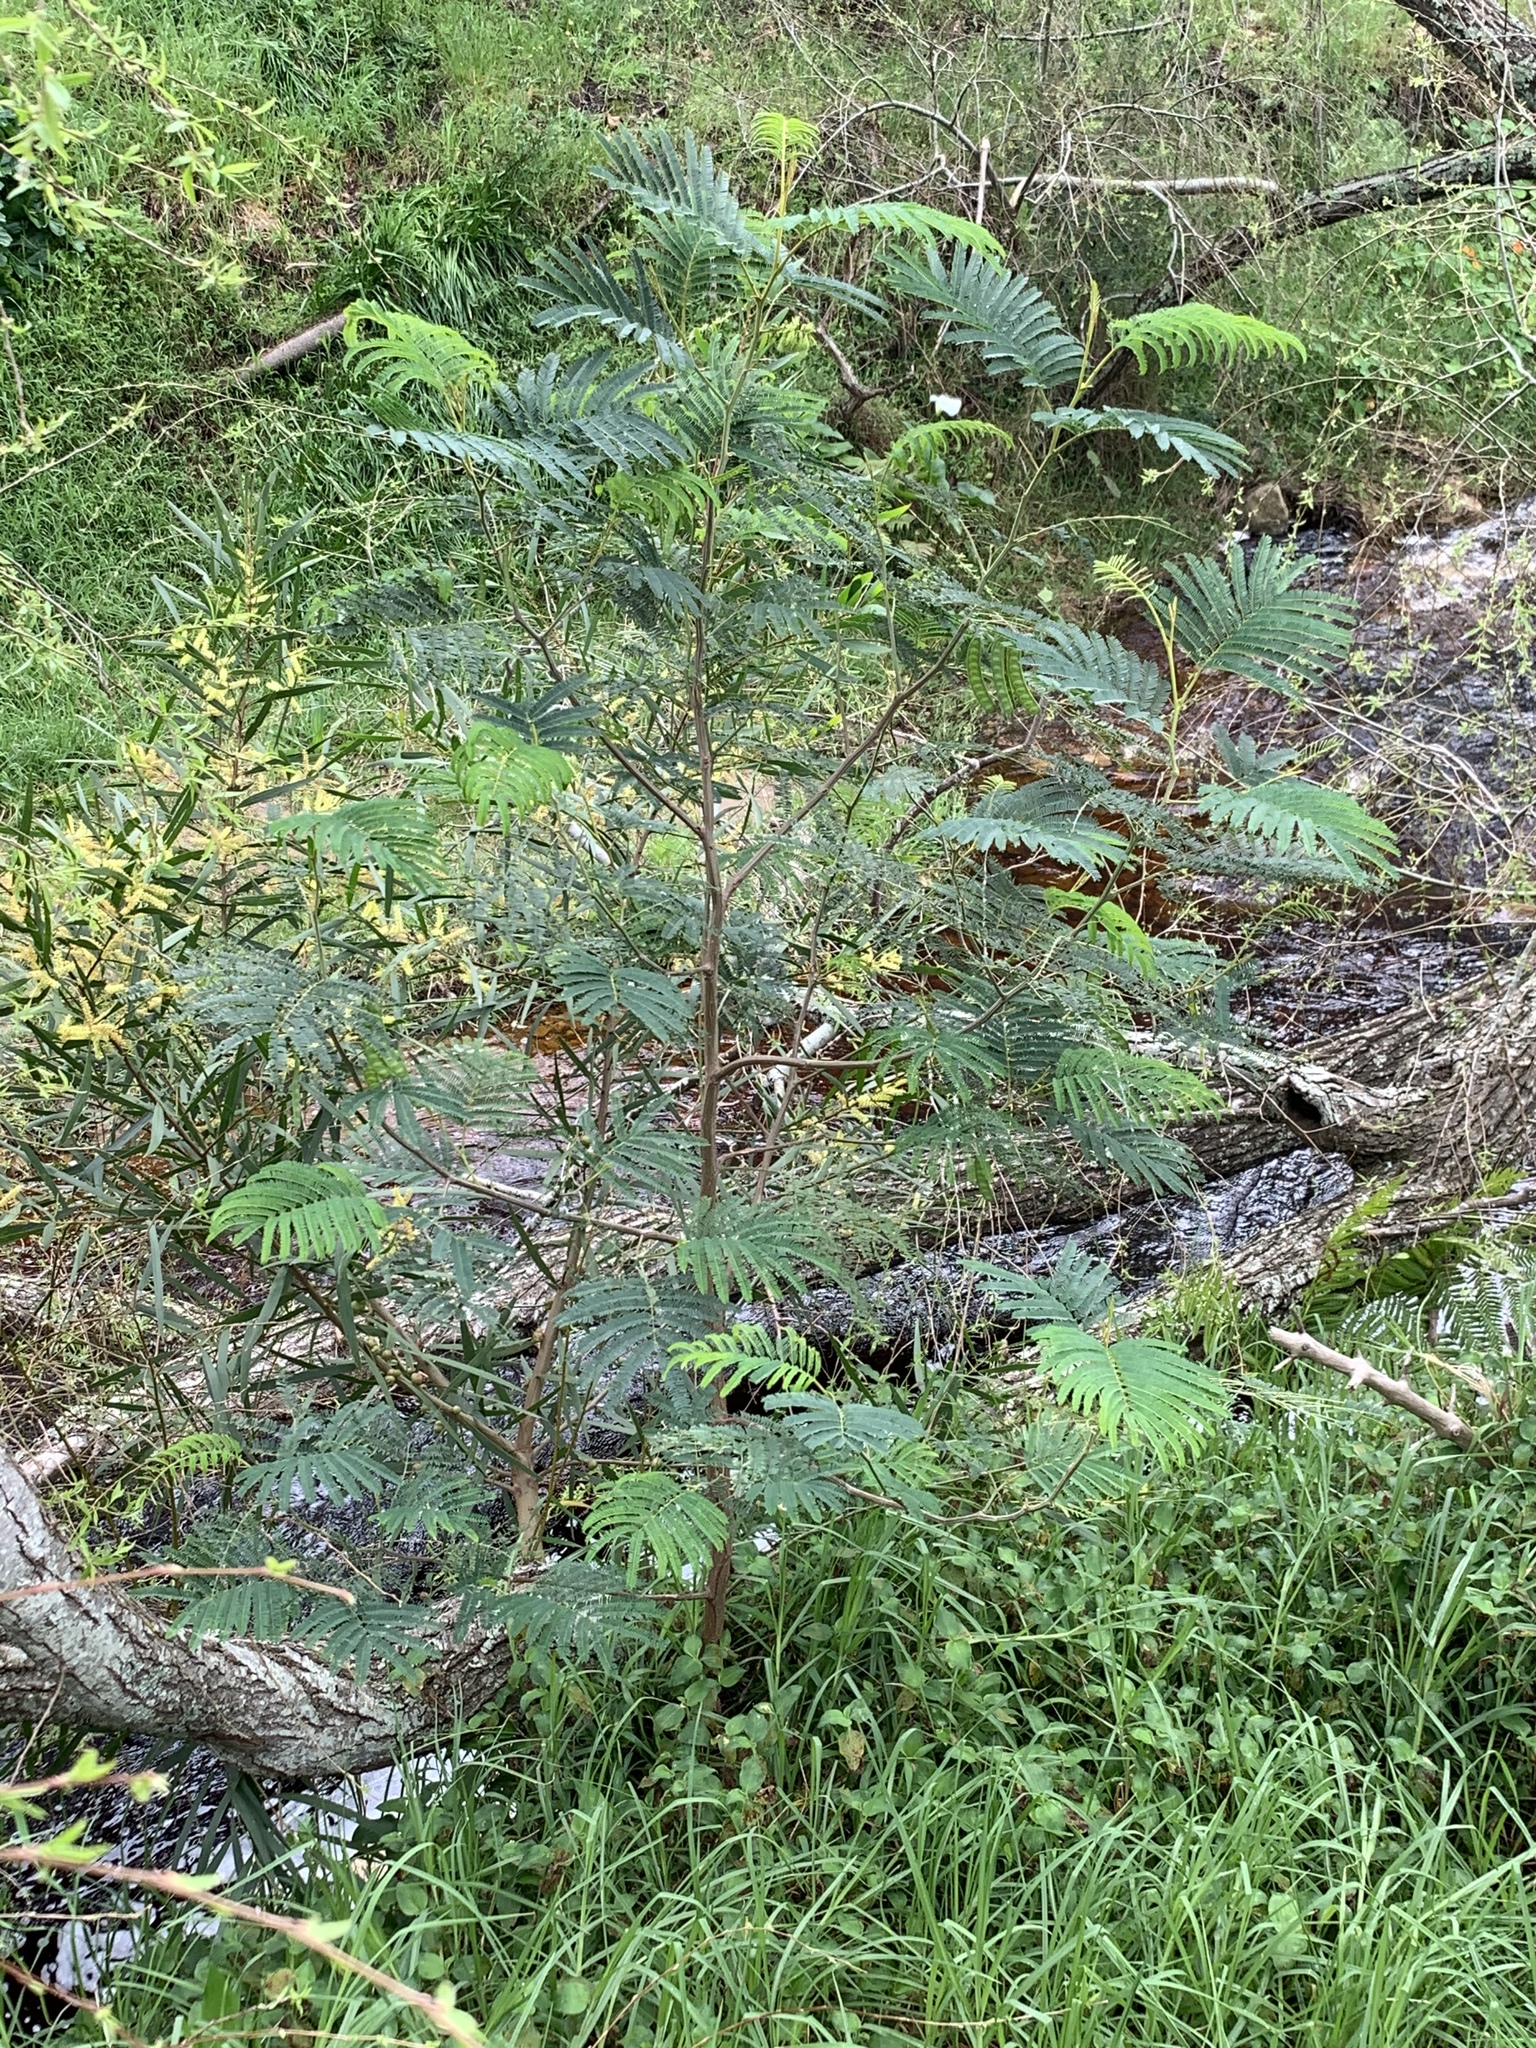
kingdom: Plantae
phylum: Tracheophyta
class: Magnoliopsida
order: Fabales
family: Fabaceae
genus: Paraserianthes
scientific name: Paraserianthes lophantha
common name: Plume albizia
